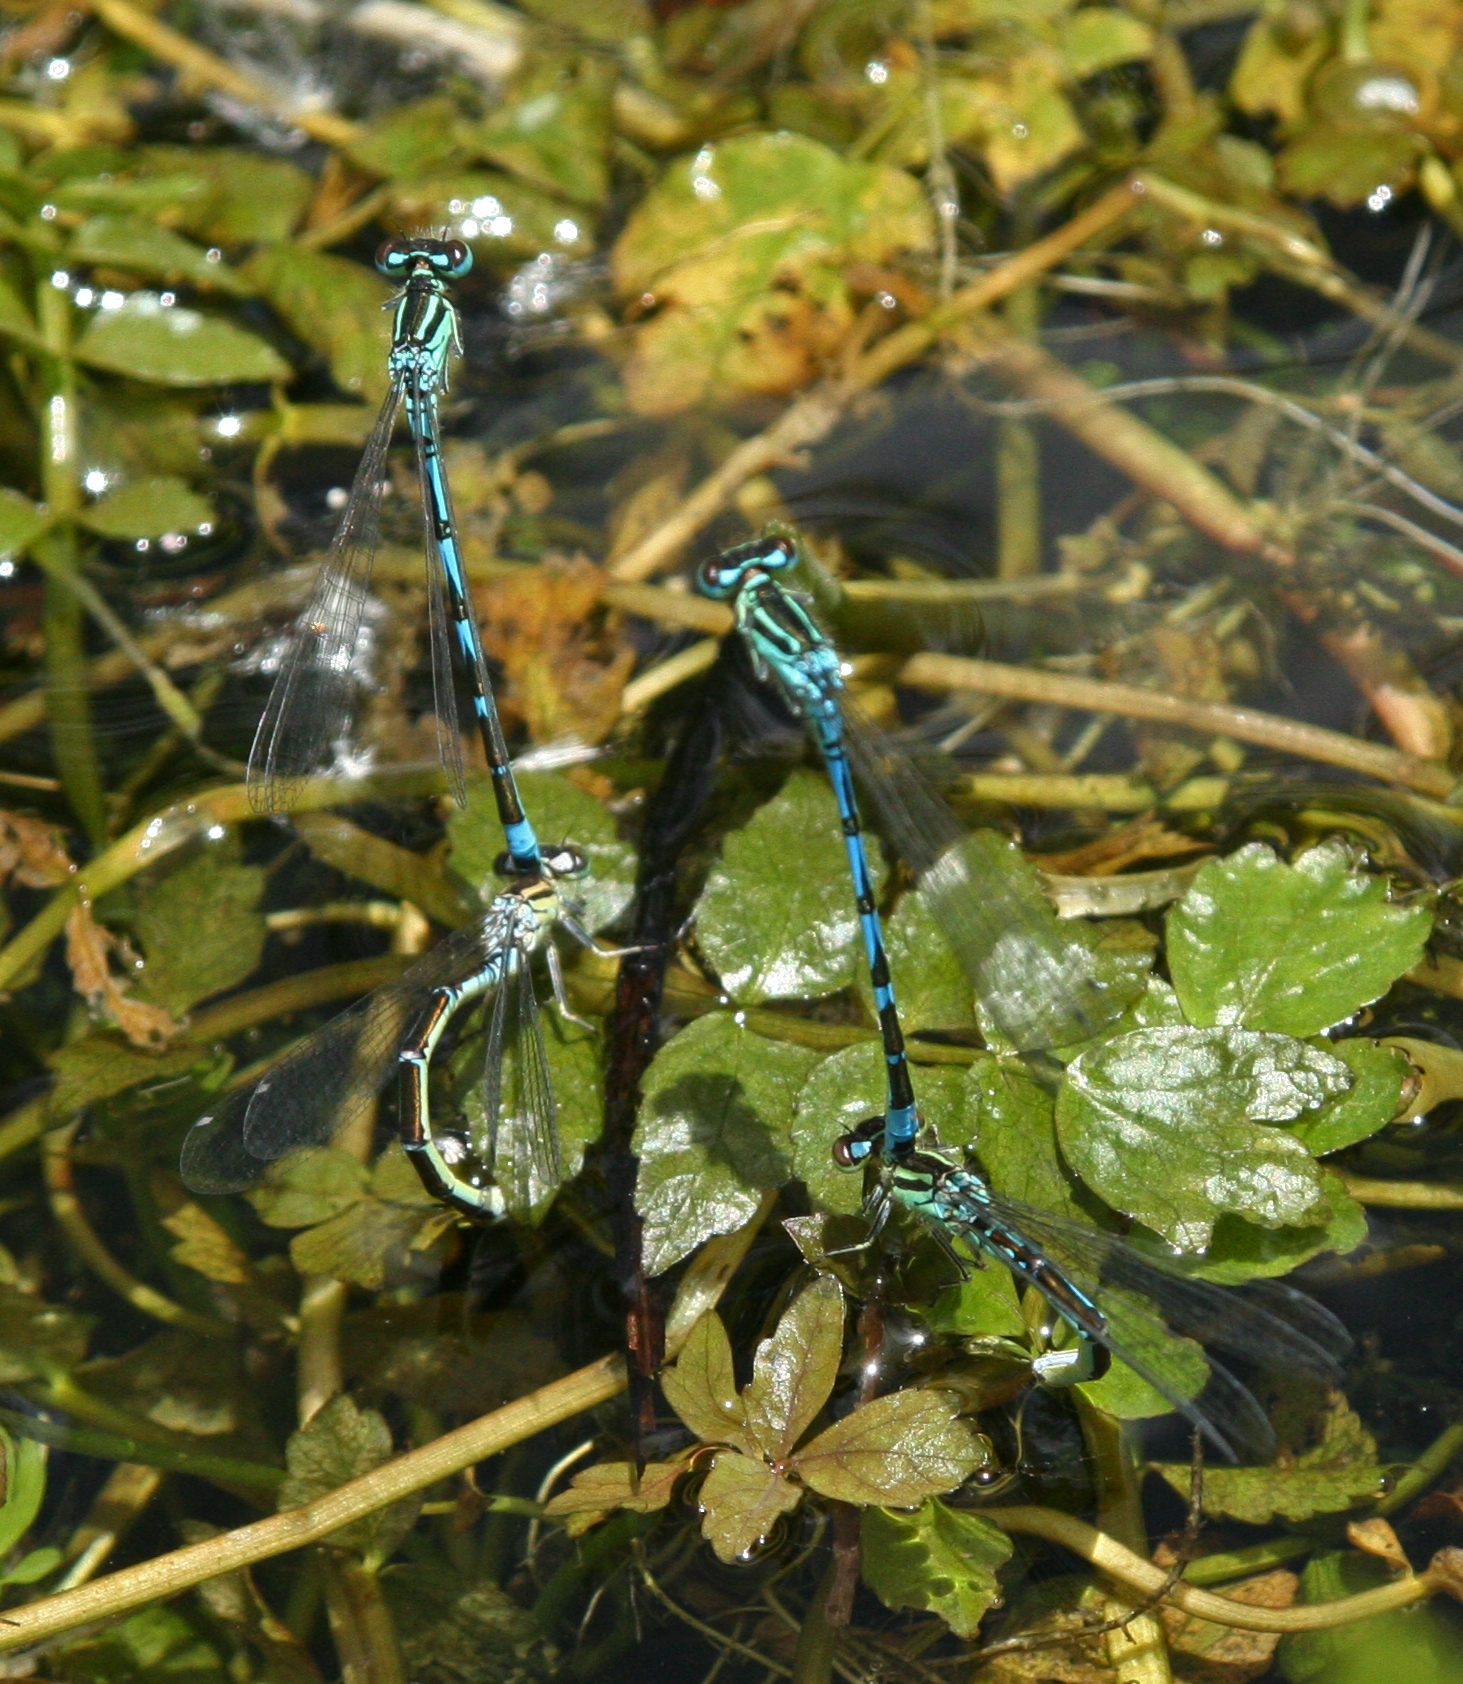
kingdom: Animalia
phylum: Arthropoda
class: Insecta
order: Odonata
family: Coenagrionidae
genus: Coenagrion
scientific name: Coenagrion ornatum
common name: Ornate bluet
